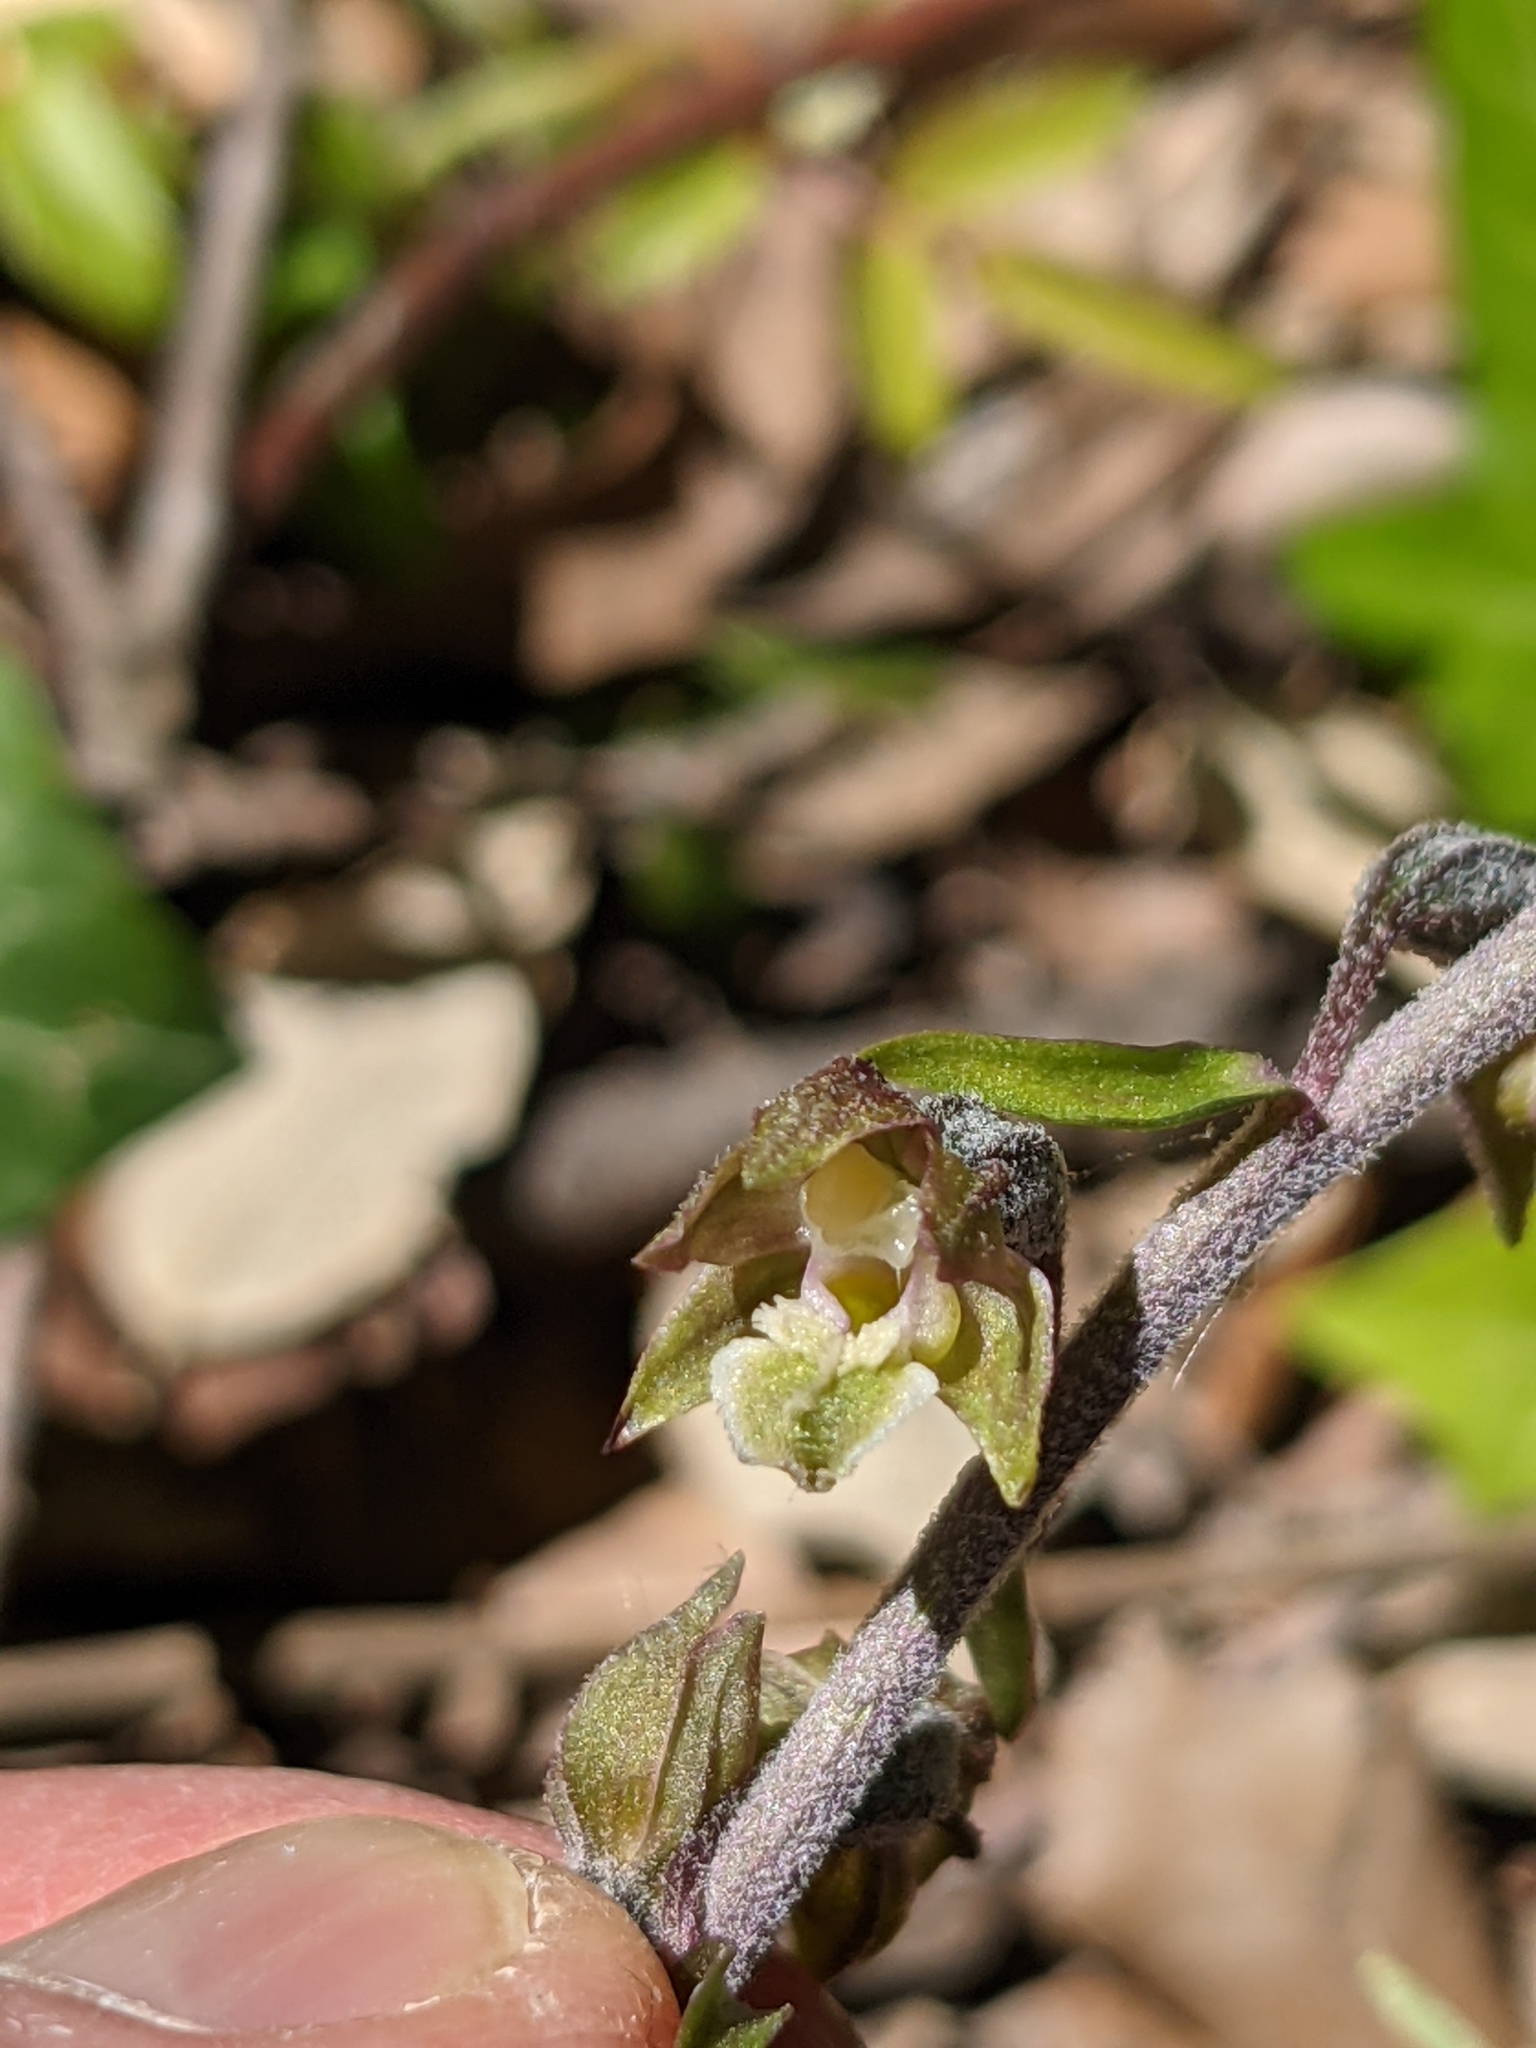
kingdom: Plantae
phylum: Tracheophyta
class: Liliopsida
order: Asparagales
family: Orchidaceae
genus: Epipactis
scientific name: Epipactis microphylla
